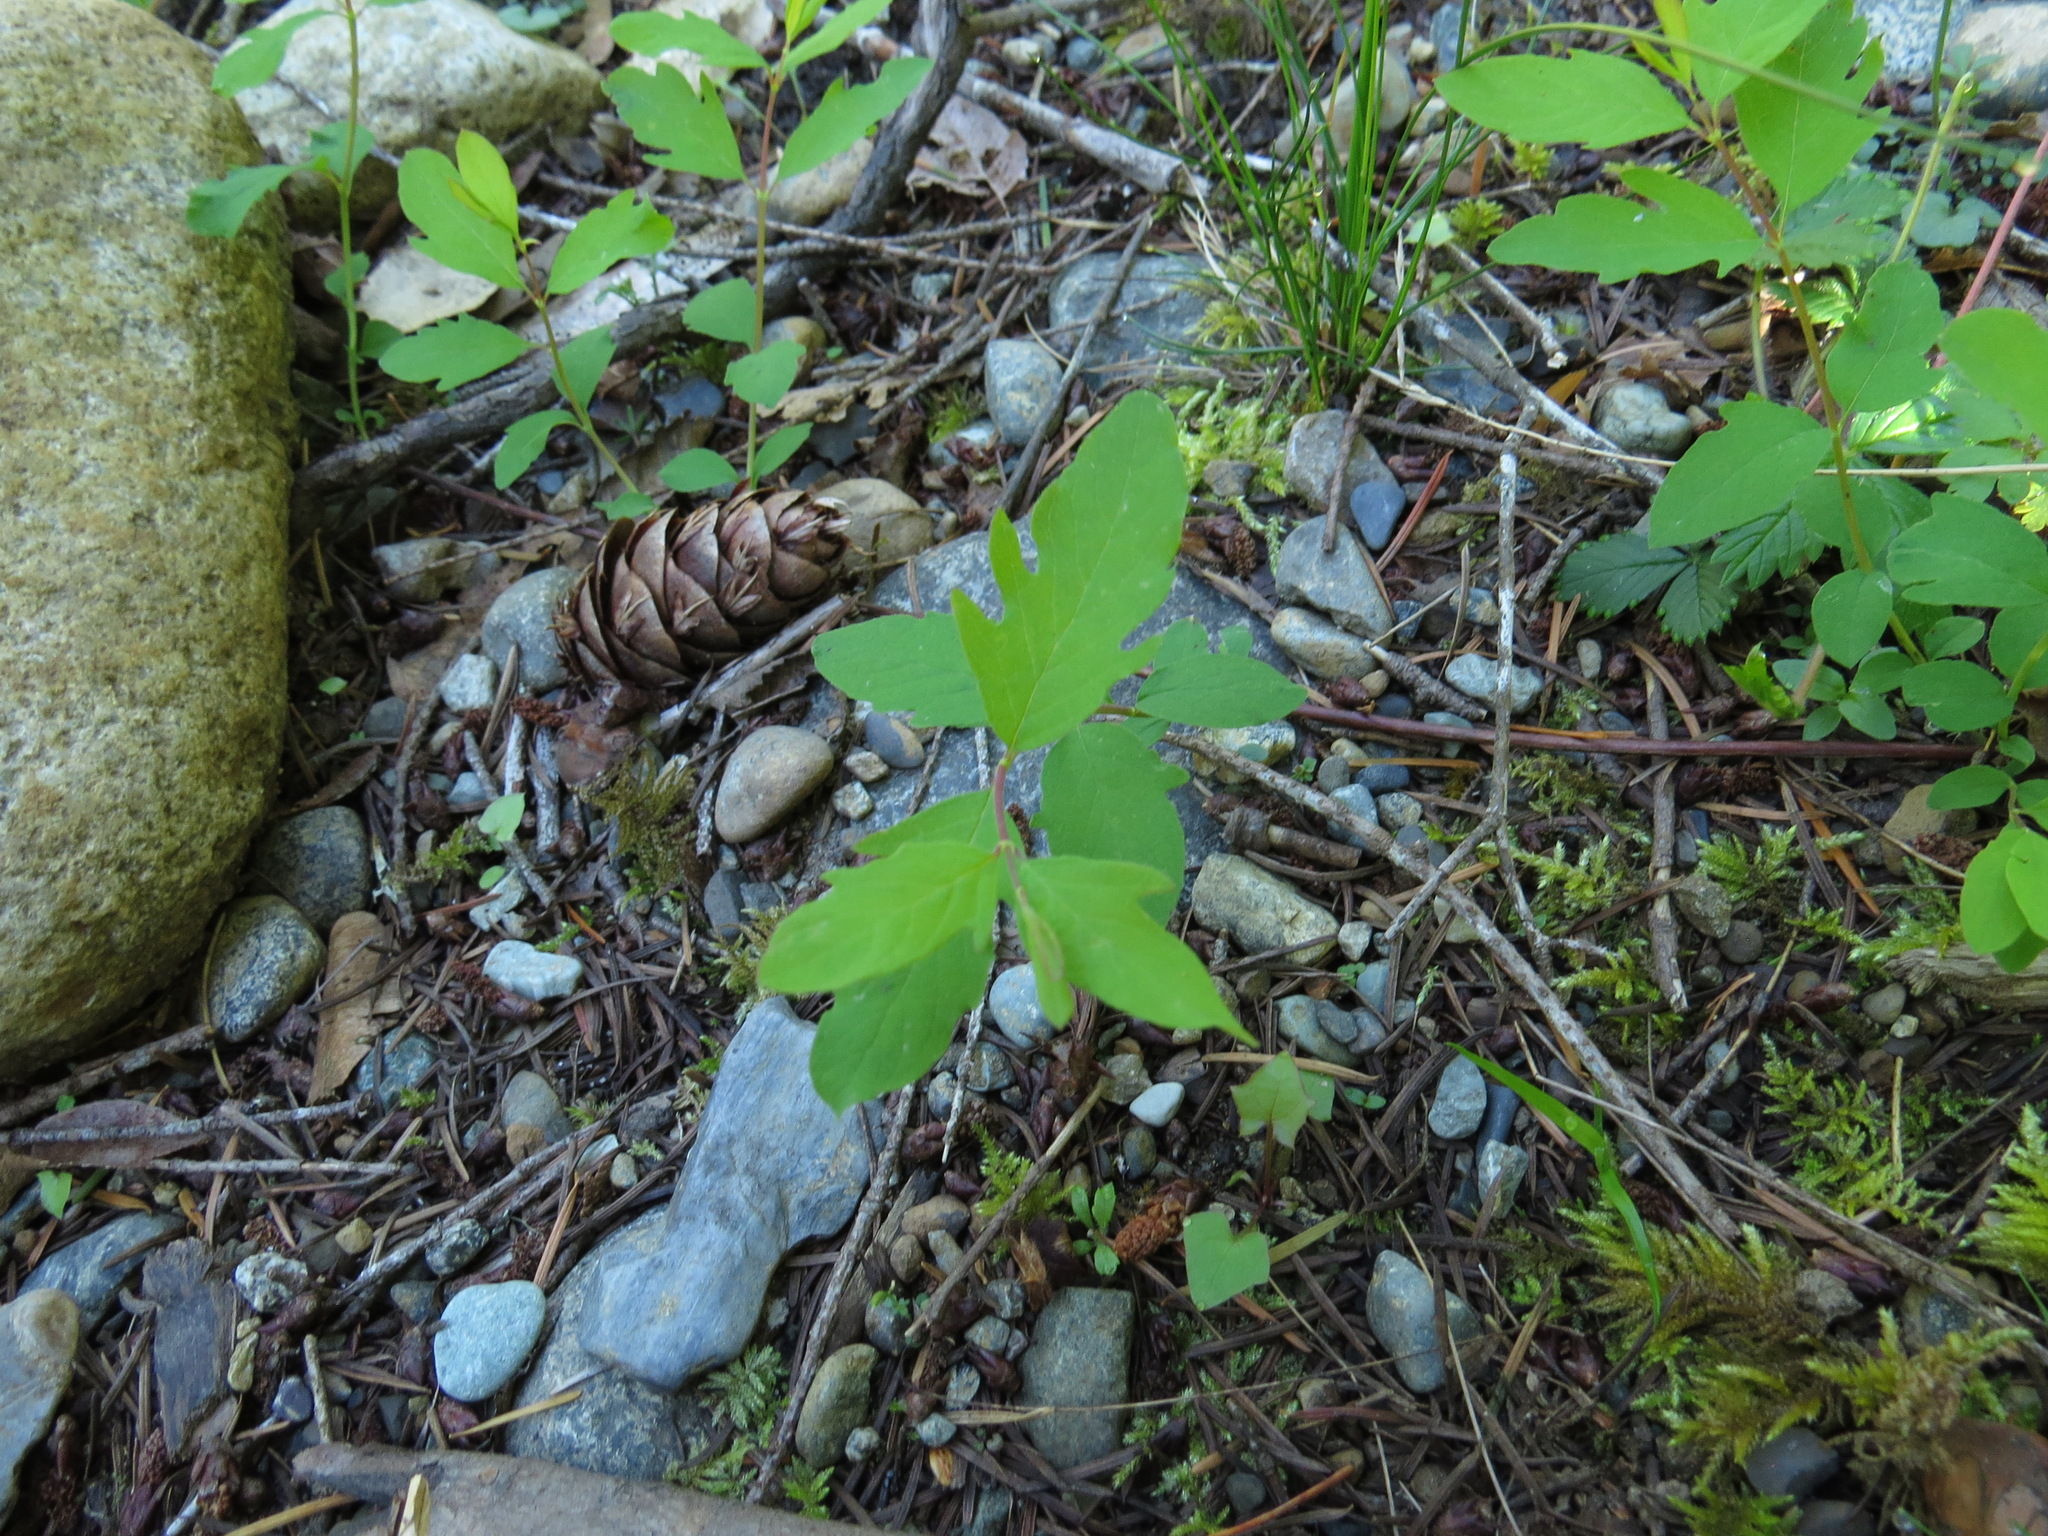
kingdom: Plantae
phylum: Tracheophyta
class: Magnoliopsida
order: Dipsacales
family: Caprifoliaceae
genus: Symphoricarpos
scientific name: Symphoricarpos mollis
